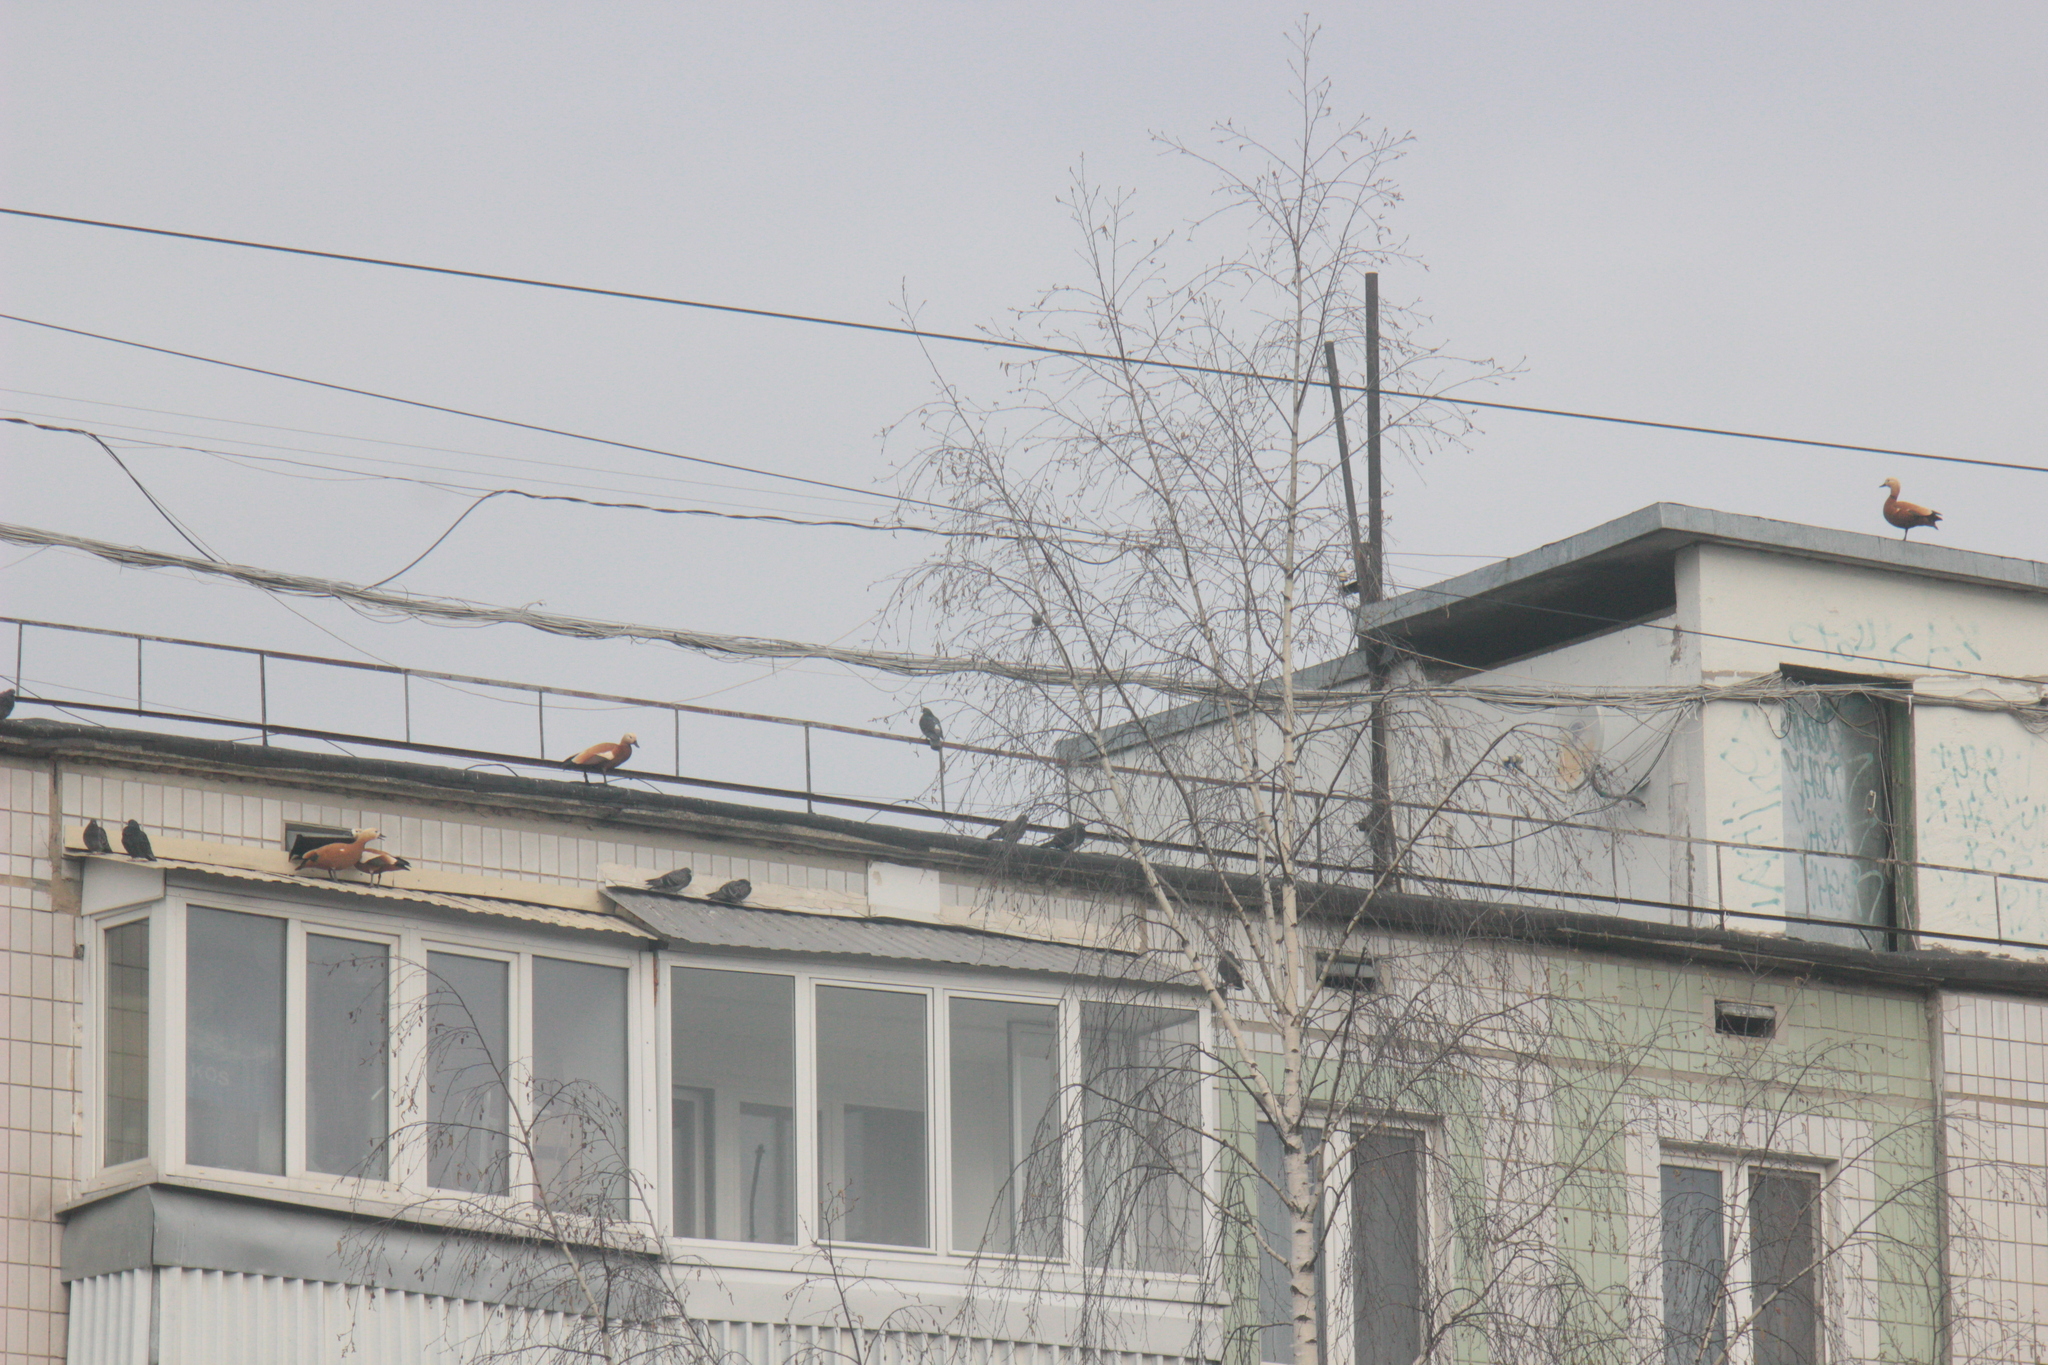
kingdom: Animalia
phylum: Chordata
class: Aves
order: Anseriformes
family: Anatidae
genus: Tadorna
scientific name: Tadorna ferruginea
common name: Ruddy shelduck
